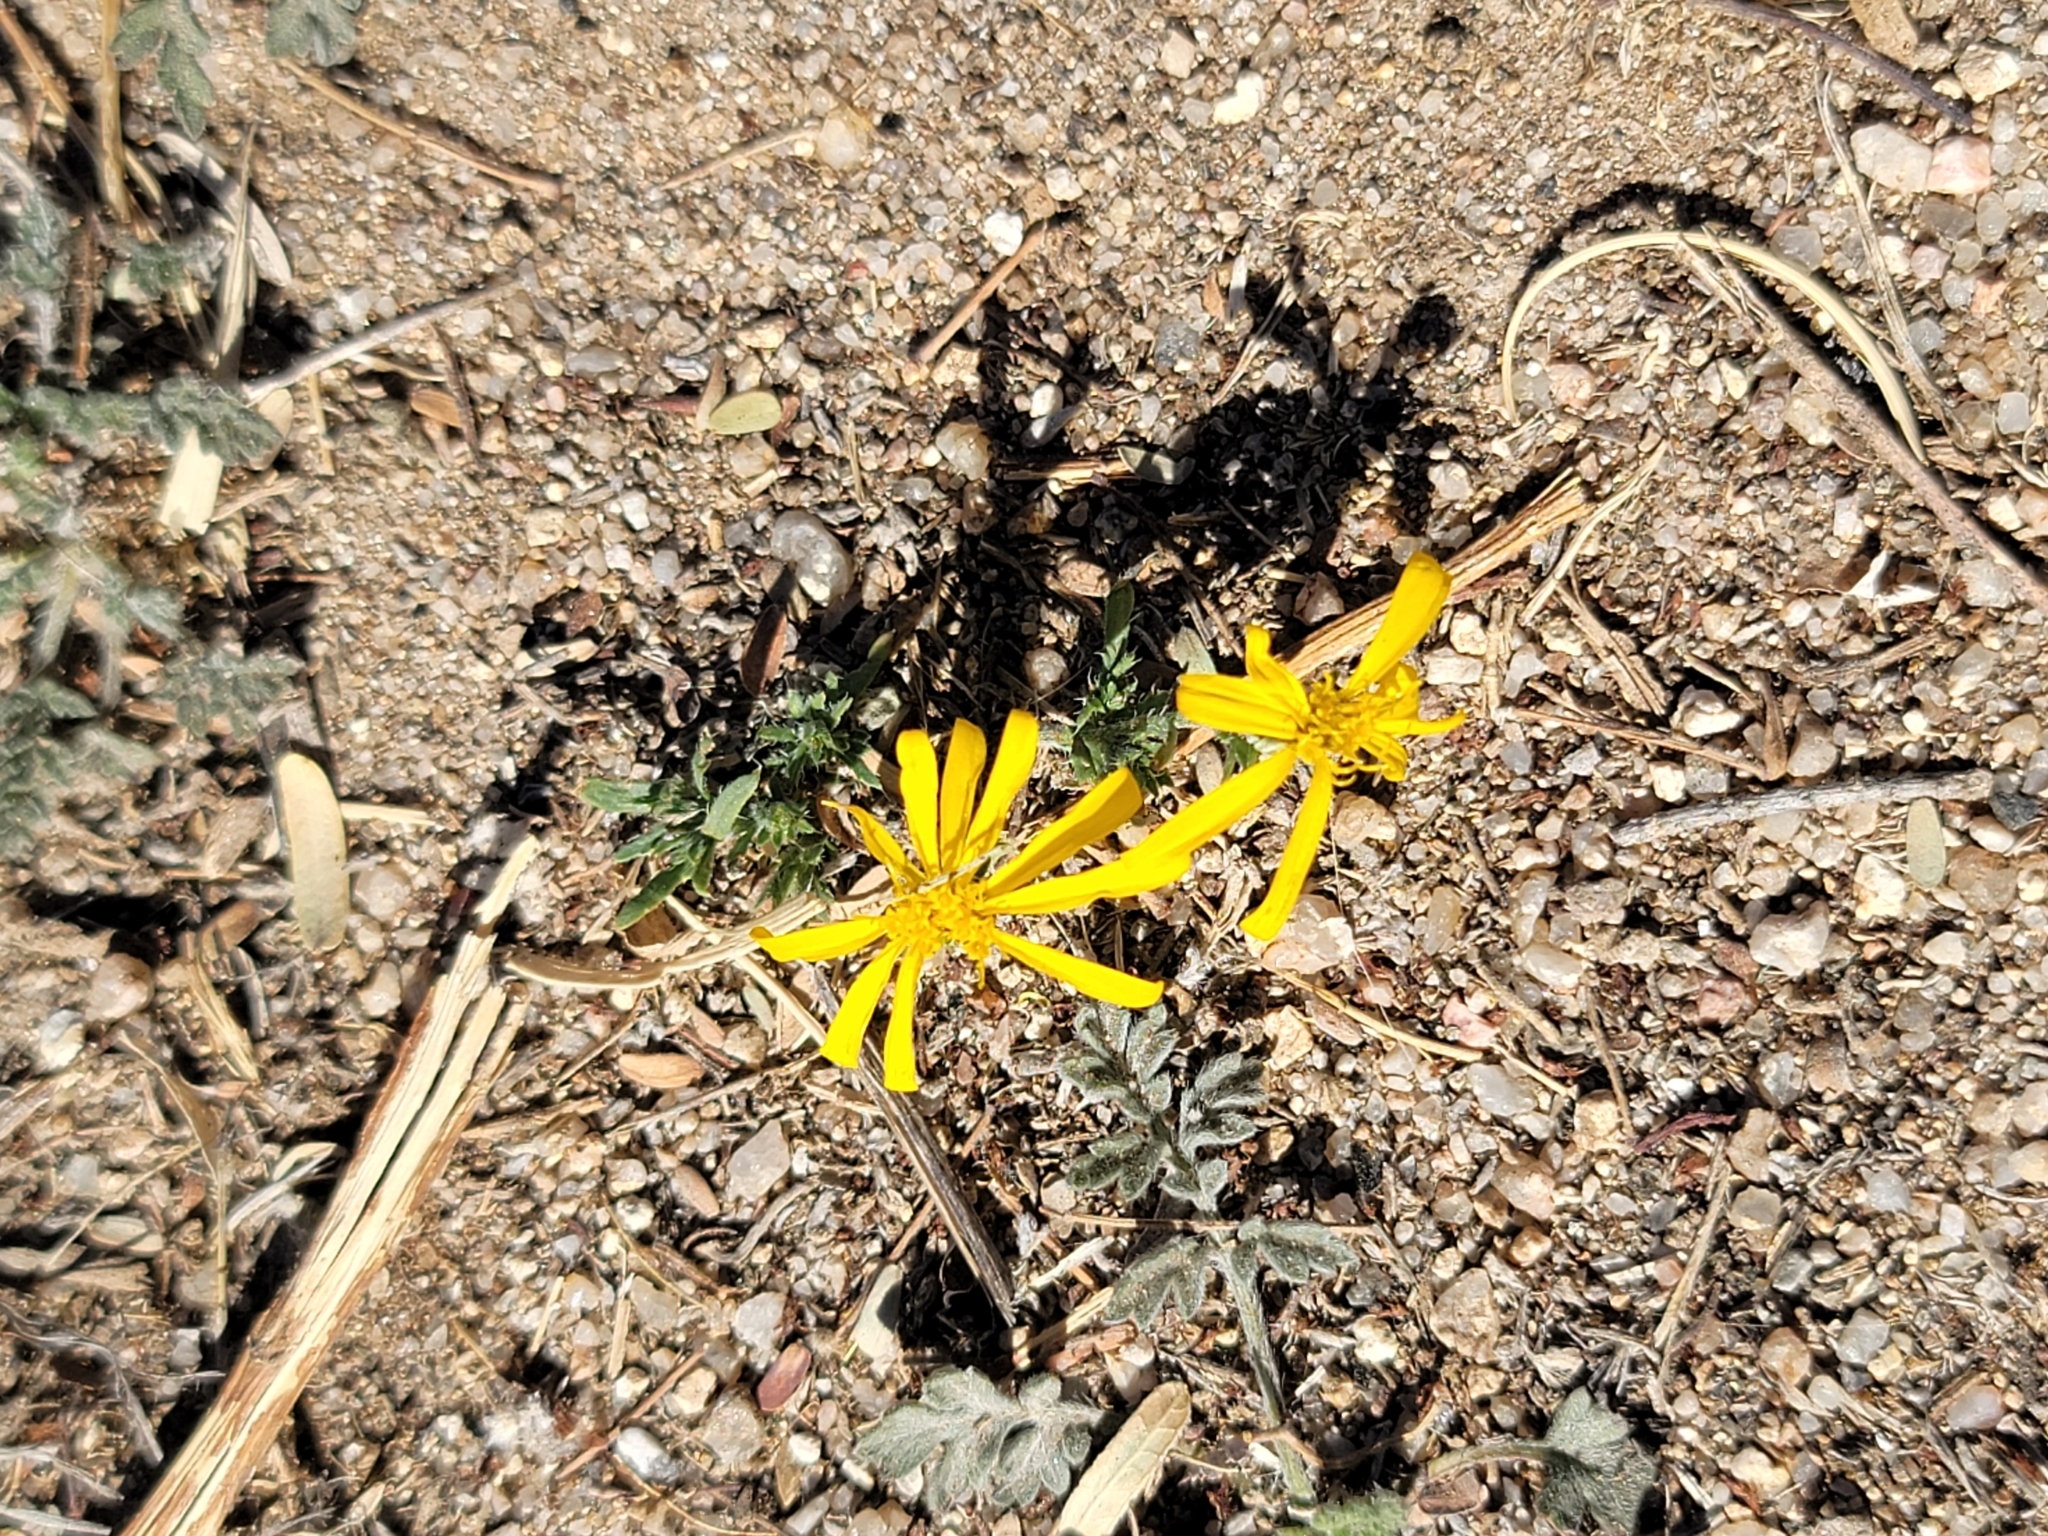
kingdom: Plantae
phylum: Tracheophyta
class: Magnoliopsida
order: Asterales
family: Asteraceae
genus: Xanthisma
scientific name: Xanthisma spinulosum
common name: Spiny goldenweed
